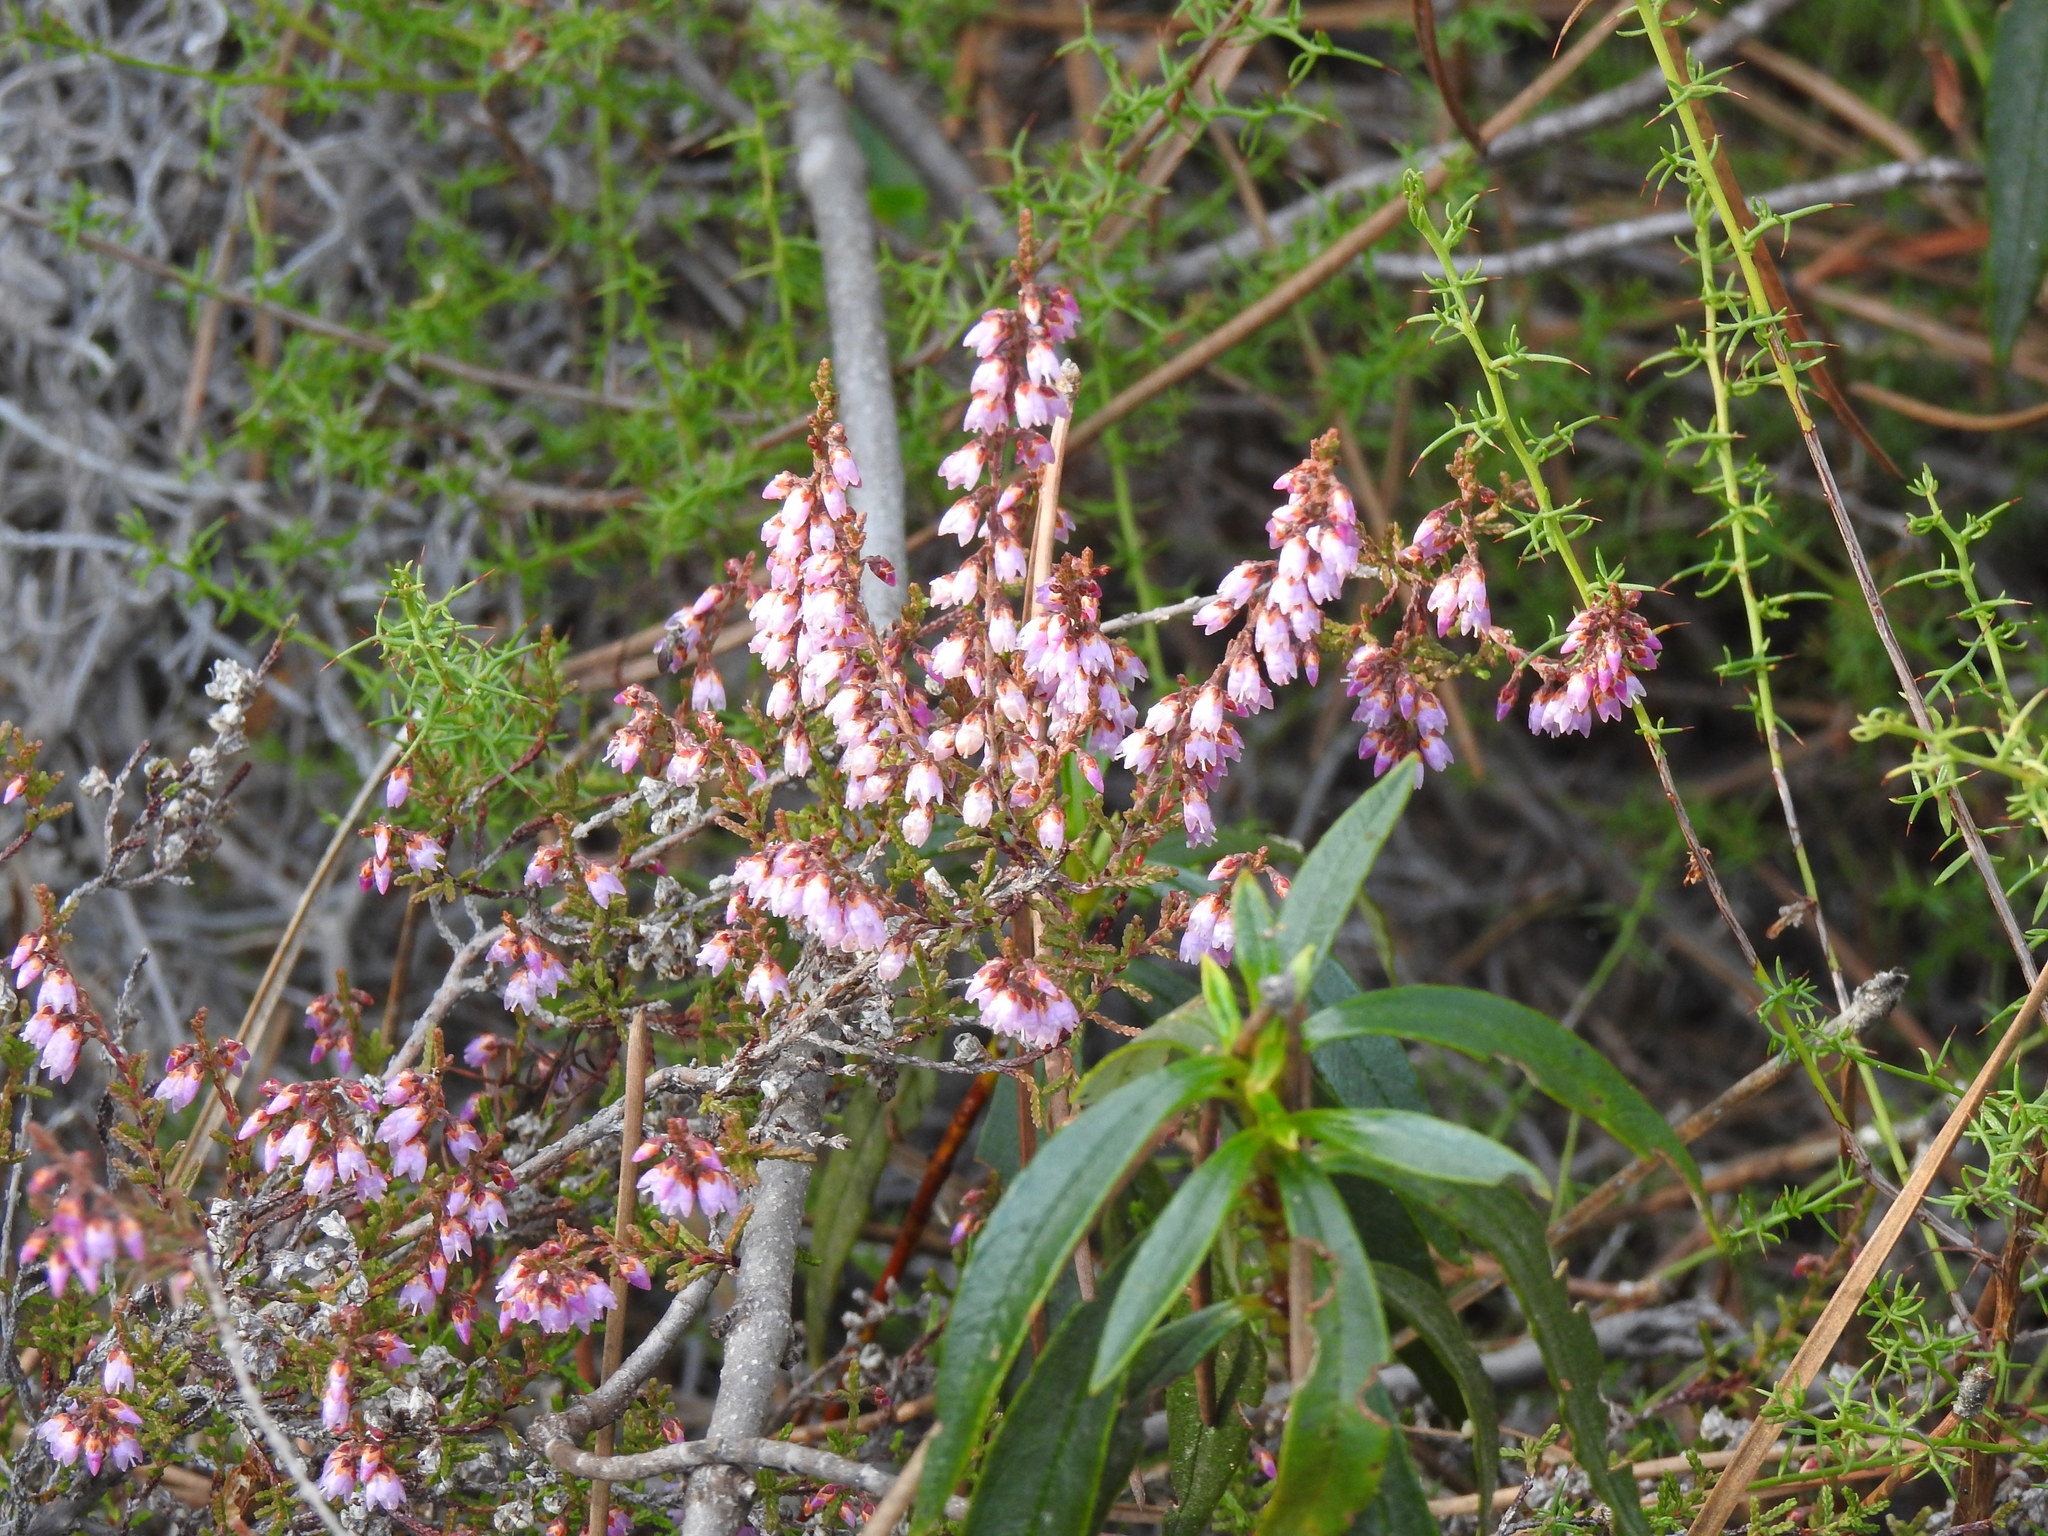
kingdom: Plantae
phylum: Tracheophyta
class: Magnoliopsida
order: Ericales
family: Ericaceae
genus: Calluna
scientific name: Calluna vulgaris
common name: Heather
